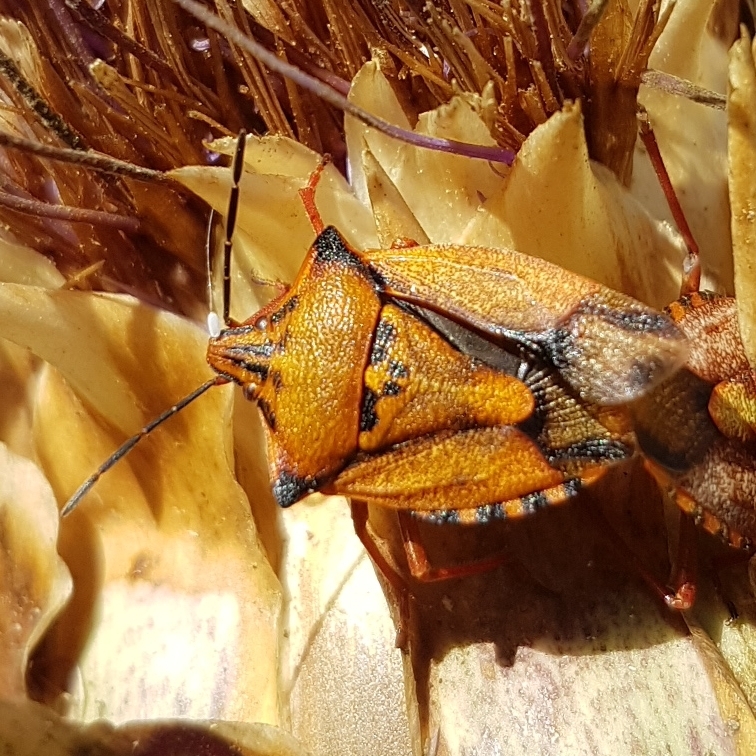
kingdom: Animalia
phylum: Arthropoda
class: Insecta
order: Hemiptera
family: Pentatomidae
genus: Carpocoris
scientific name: Carpocoris mediterraneus
